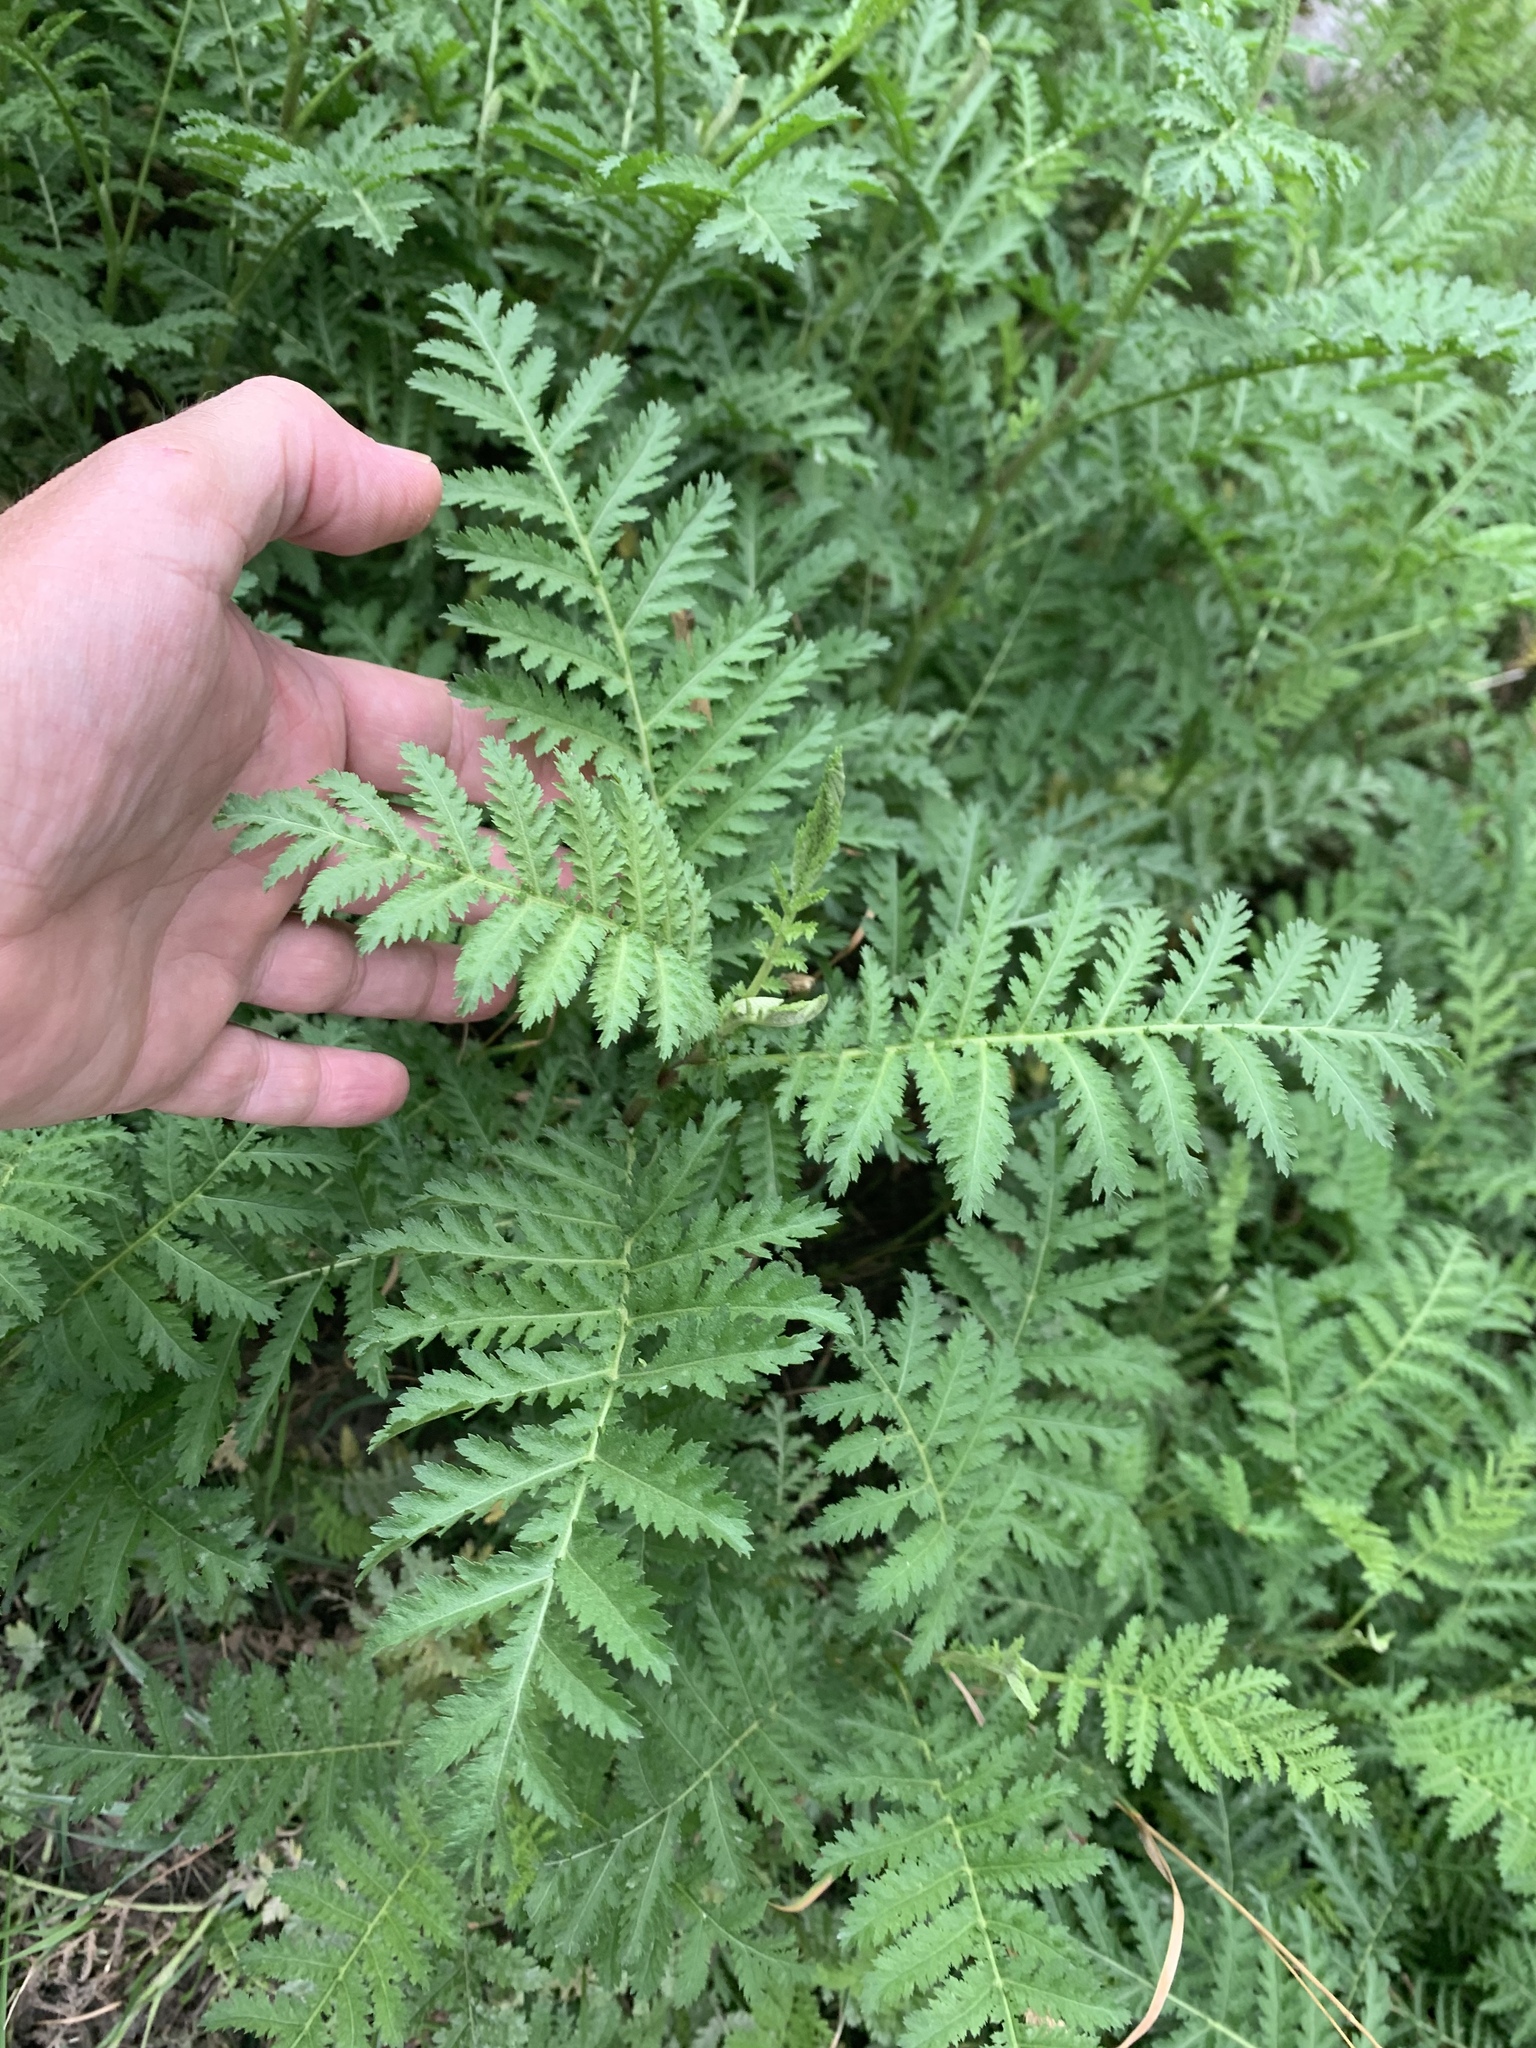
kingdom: Plantae
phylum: Tracheophyta
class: Magnoliopsida
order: Asterales
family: Asteraceae
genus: Tanacetum
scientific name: Tanacetum vulgare
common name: Common tansy
